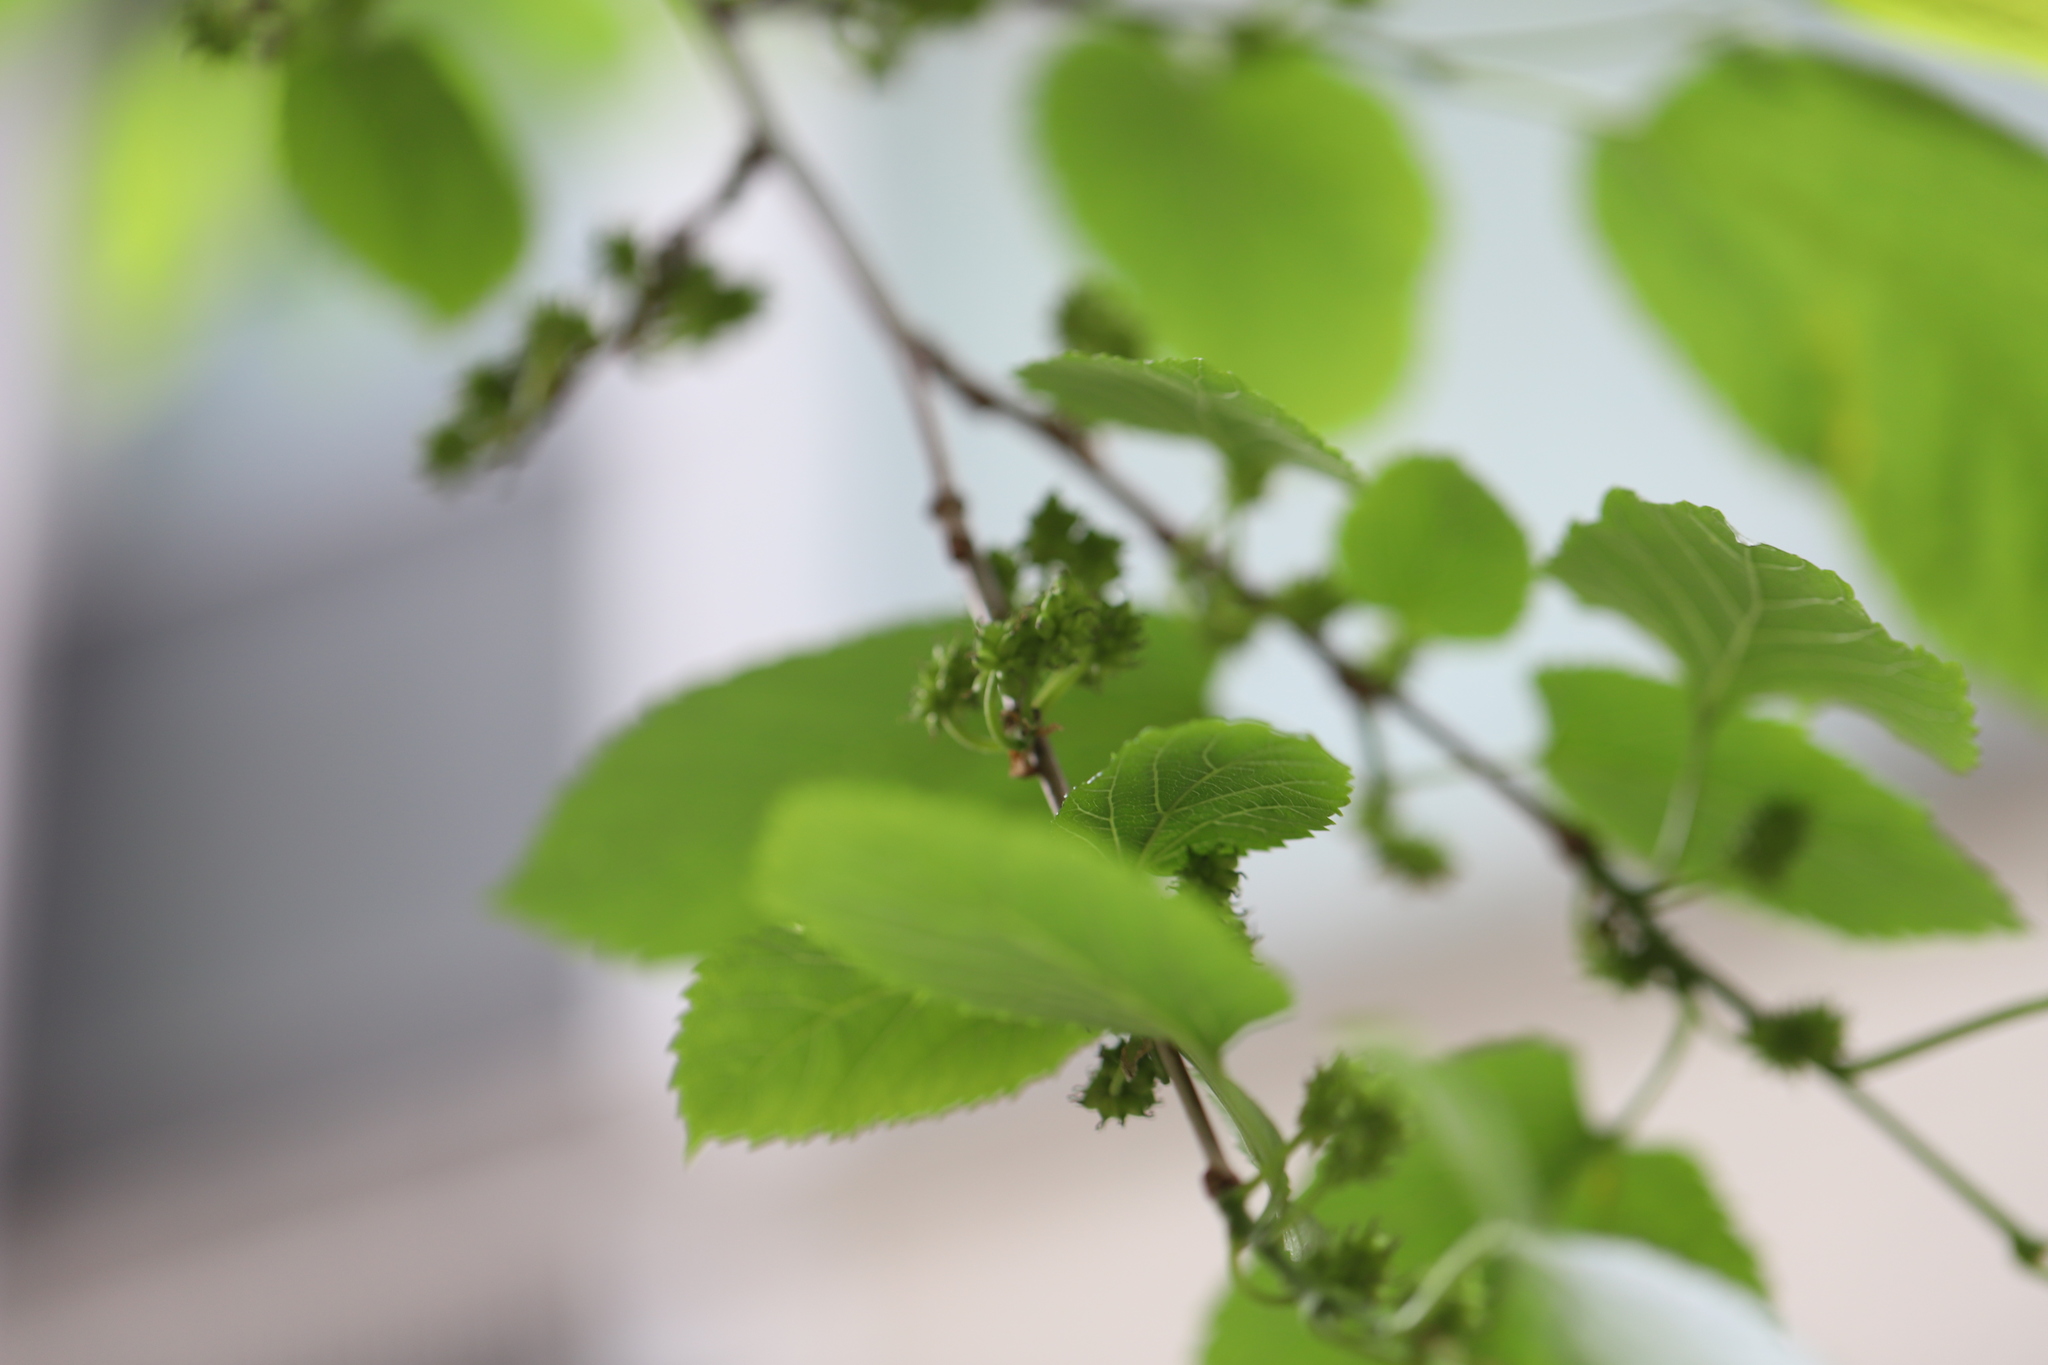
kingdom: Fungi
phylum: Ascomycota
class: Dothideomycetes
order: Mycosphaerellales
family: Mycosphaerellaceae
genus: Cercospora
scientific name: Cercospora moricola
